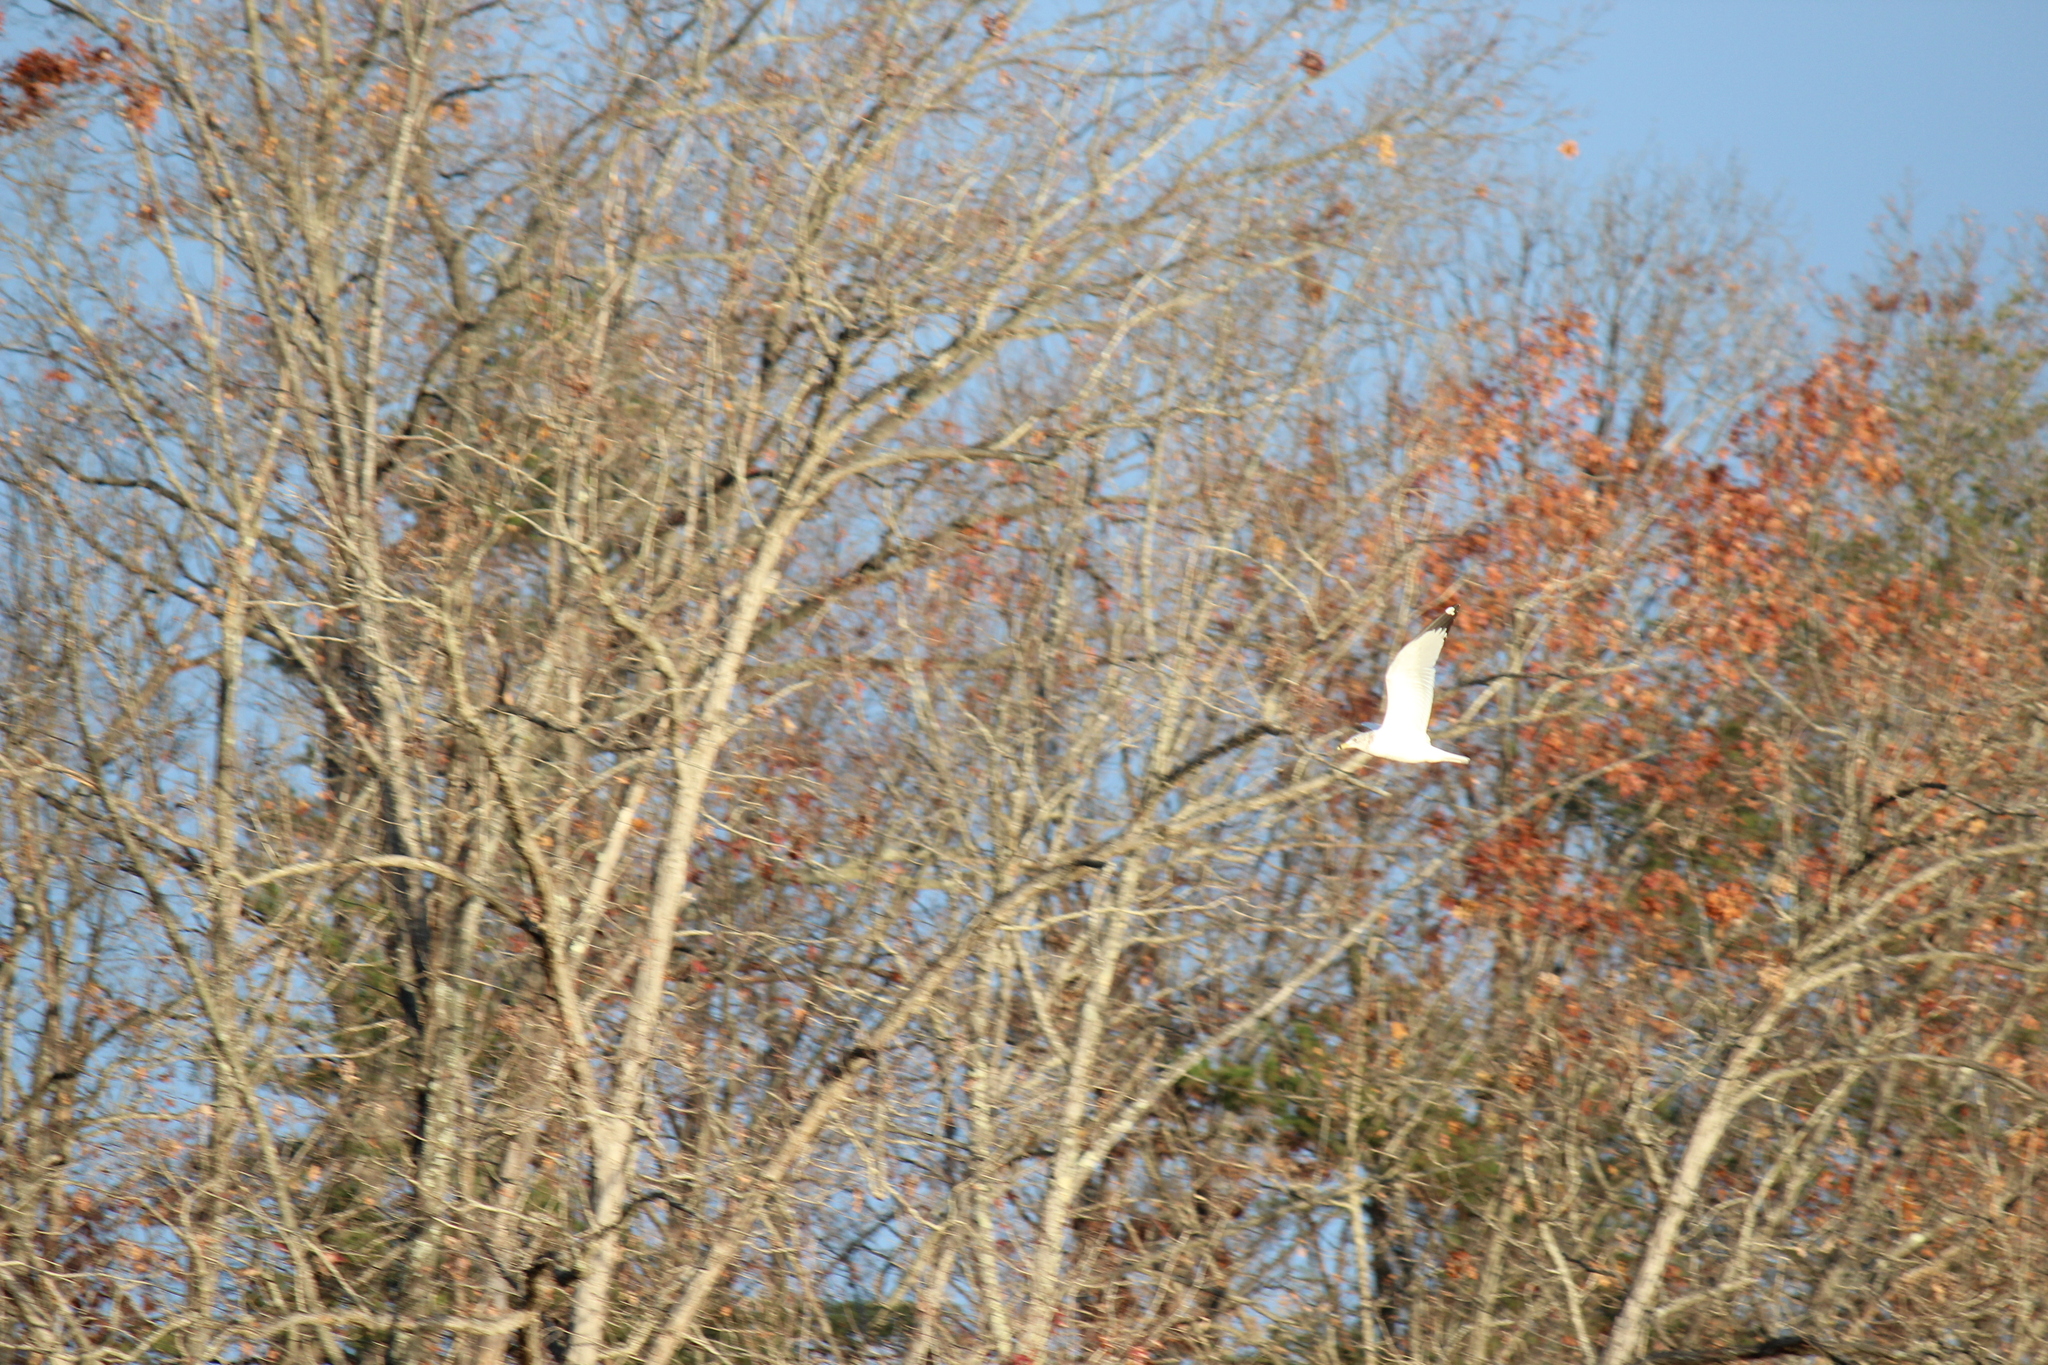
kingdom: Animalia
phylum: Chordata
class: Aves
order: Charadriiformes
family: Laridae
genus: Larus
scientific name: Larus delawarensis
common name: Ring-billed gull
